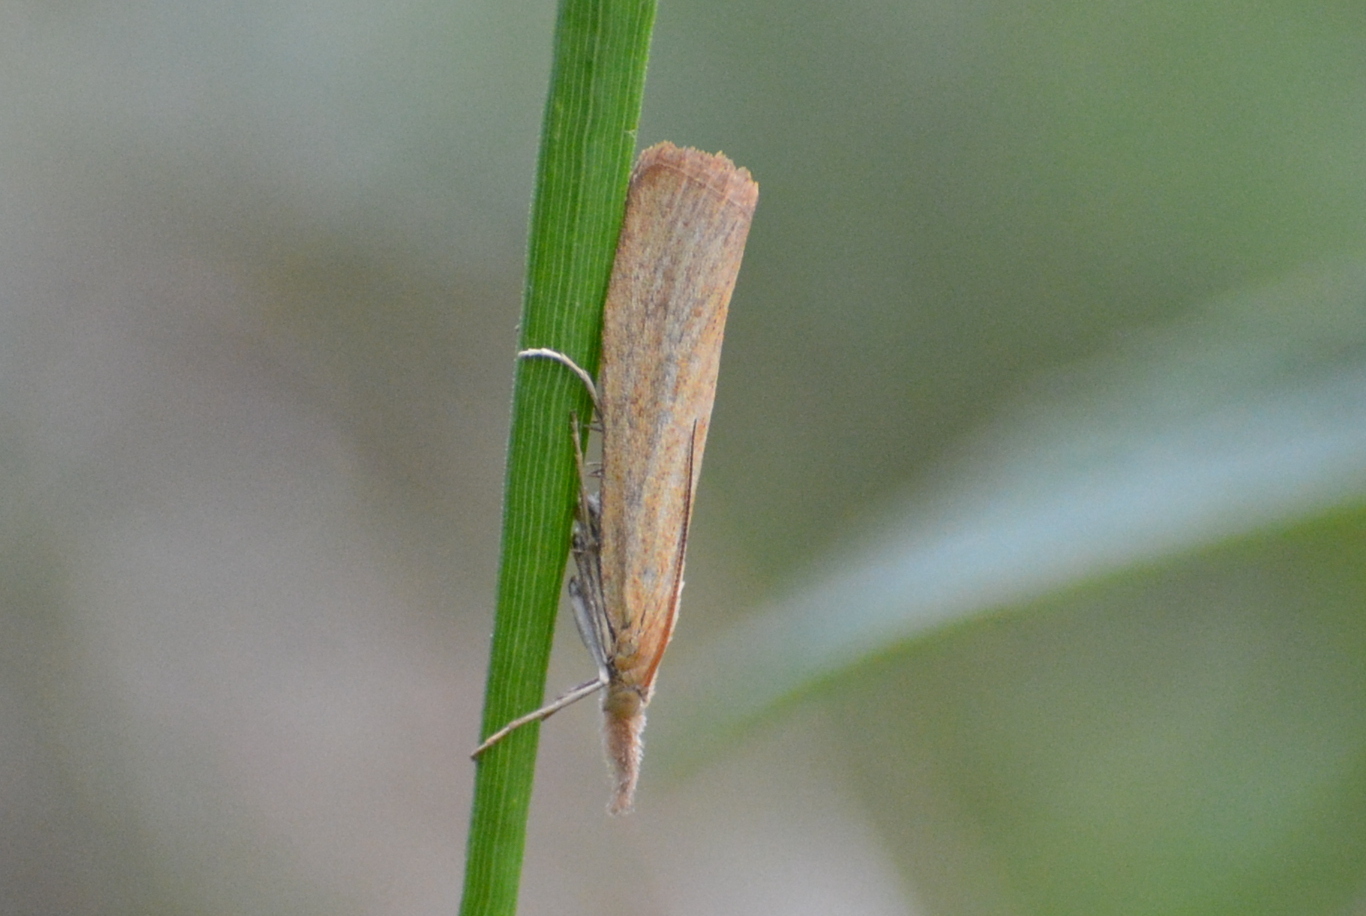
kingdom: Animalia
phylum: Arthropoda
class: Insecta
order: Lepidoptera
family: Crambidae
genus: Pediasia
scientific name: Pediasia luteella
